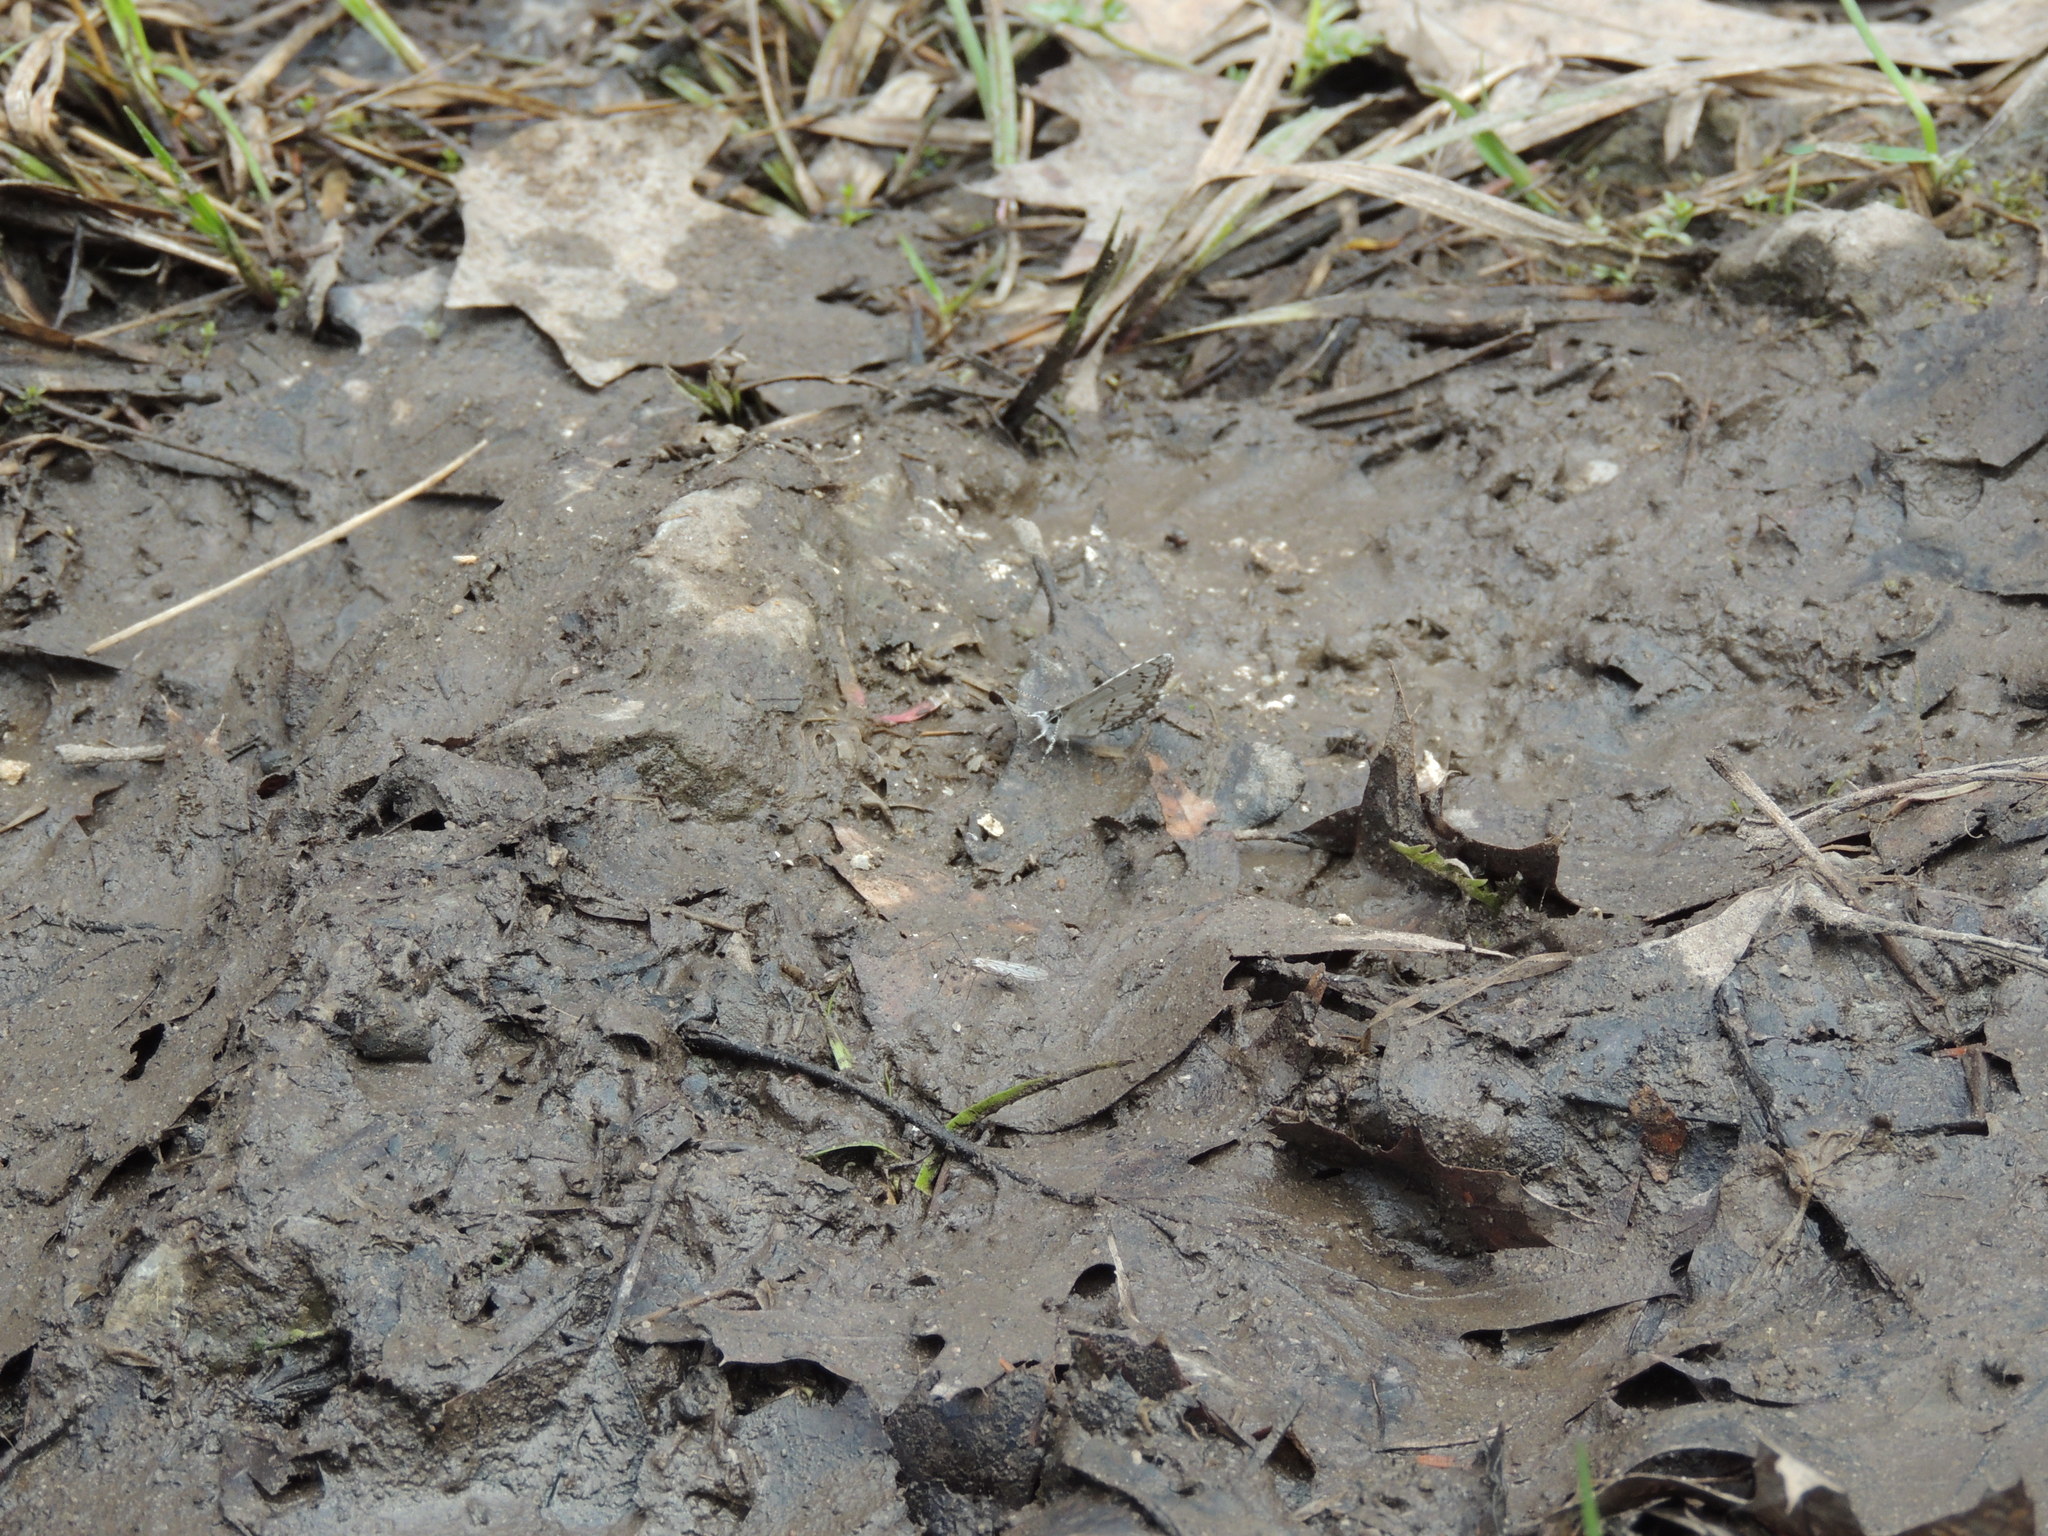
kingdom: Animalia
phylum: Arthropoda
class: Insecta
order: Lepidoptera
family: Lycaenidae
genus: Celastrina
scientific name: Celastrina lucia
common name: Lucia azure
